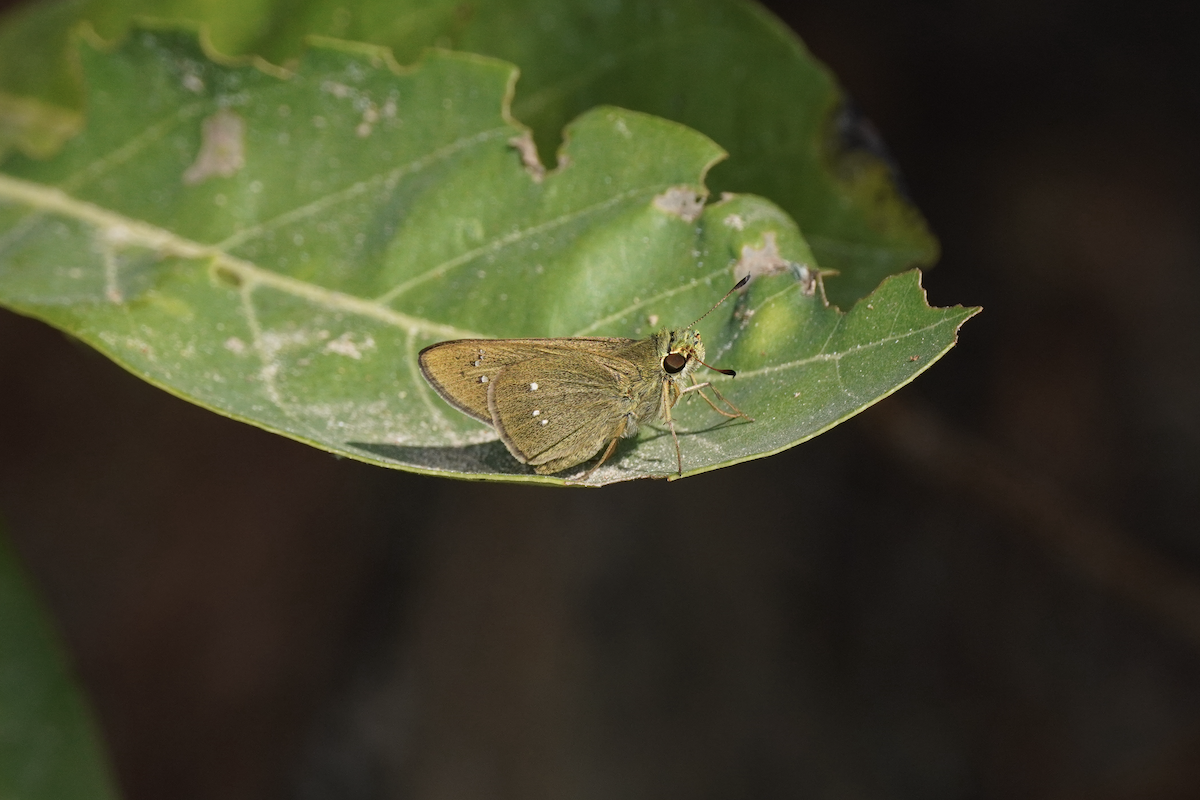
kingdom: Animalia
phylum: Arthropoda
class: Insecta
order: Lepidoptera
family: Hesperiidae
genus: Borbo
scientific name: Borbo cinnara
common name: Formosan swift
